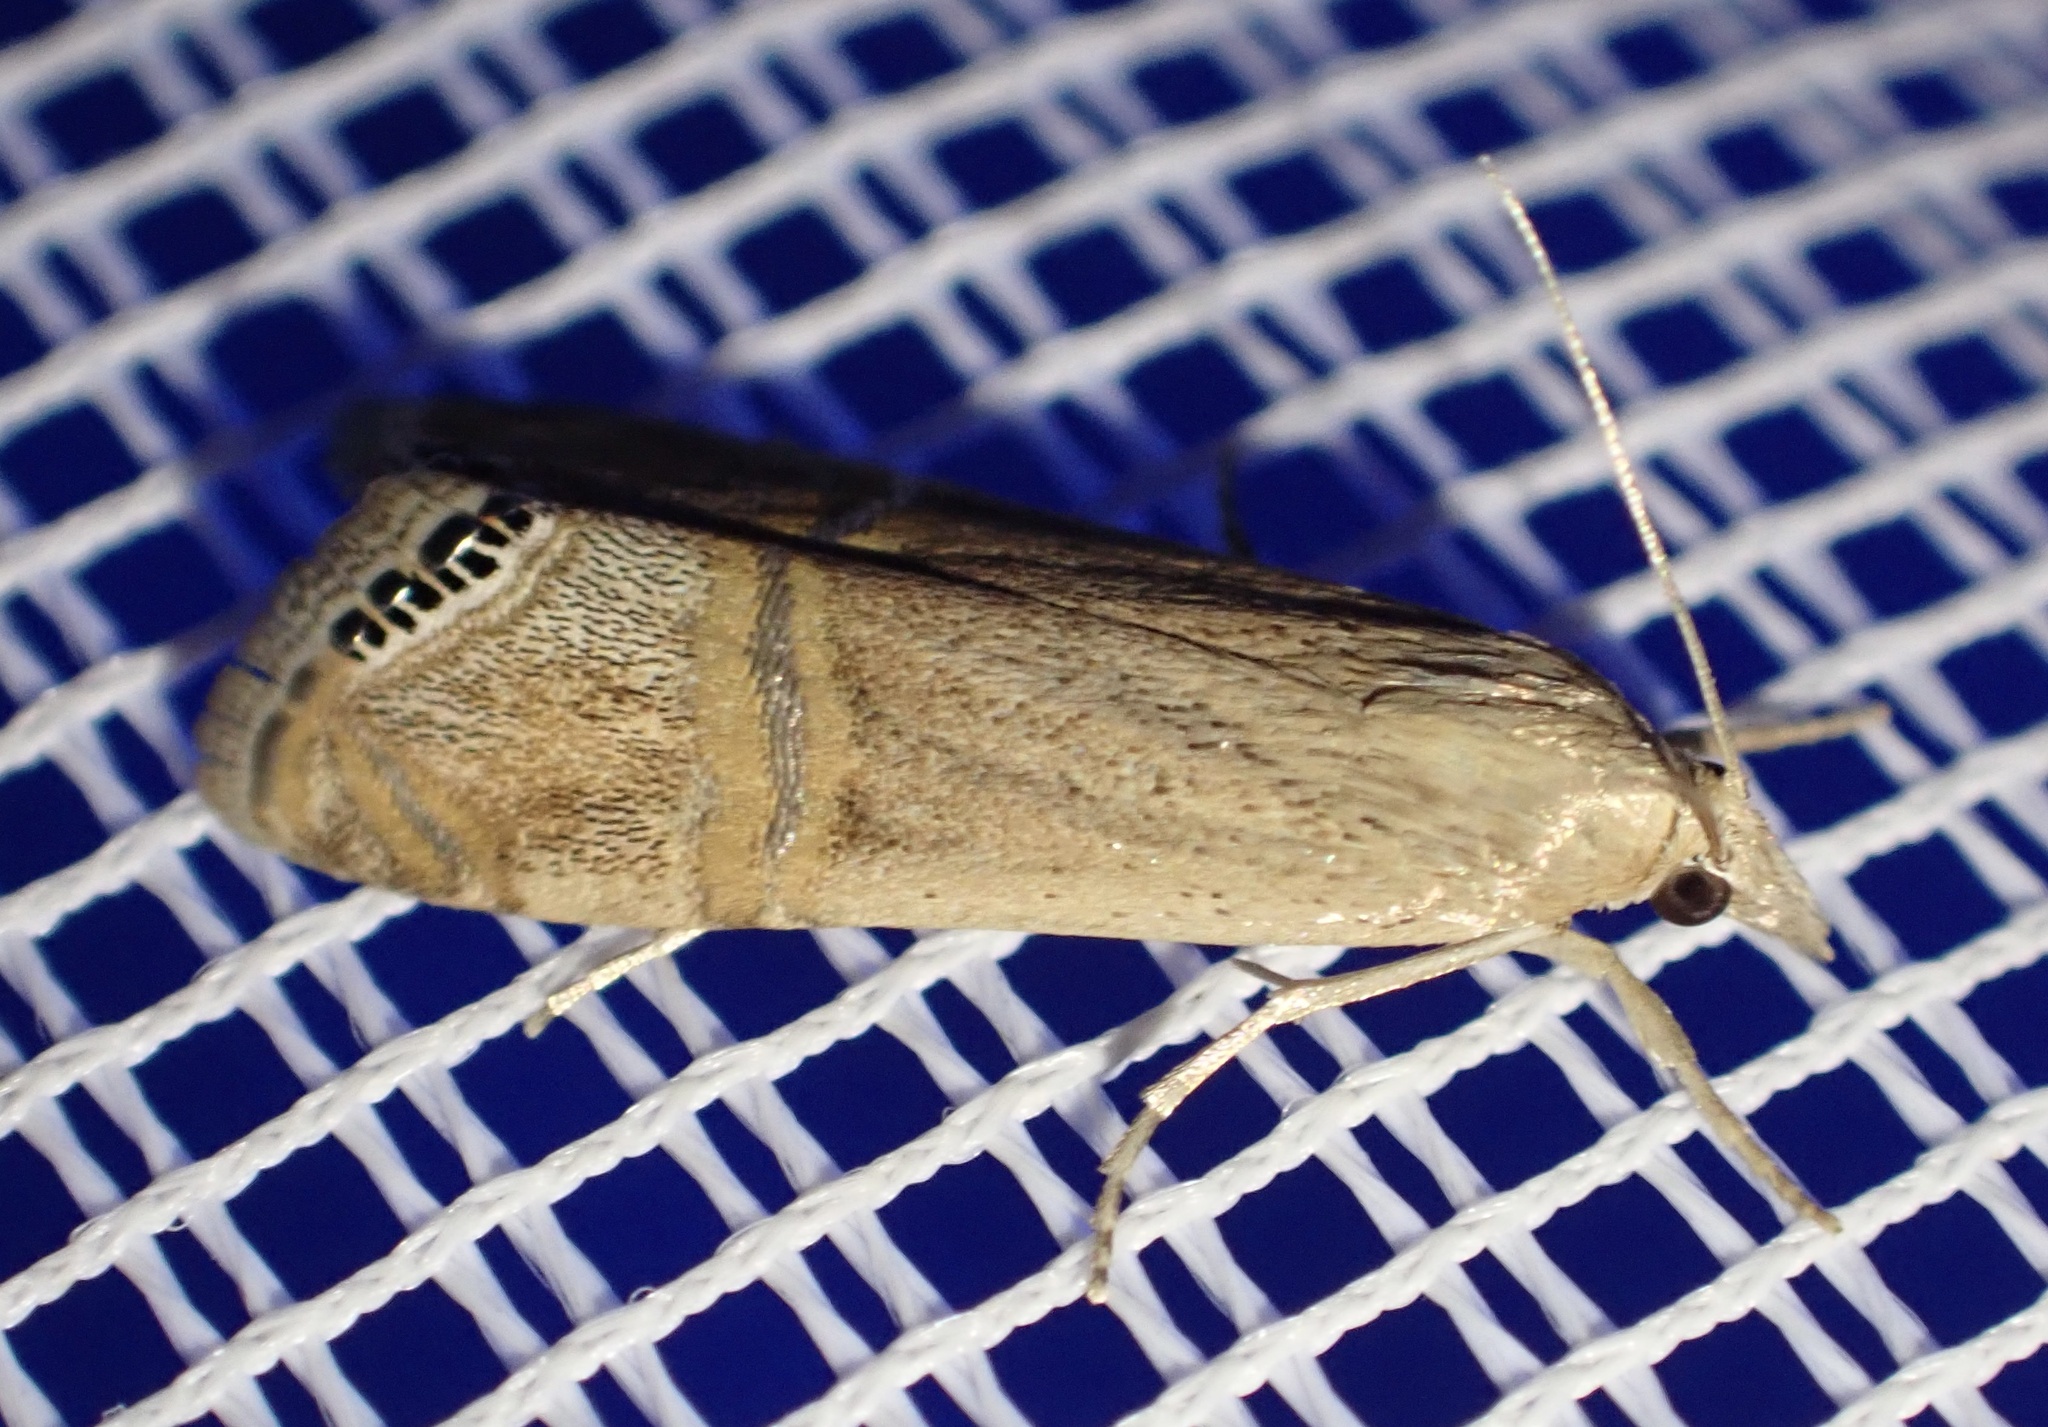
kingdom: Animalia
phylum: Arthropoda
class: Insecta
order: Lepidoptera
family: Crambidae
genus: Euchromius
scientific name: Euchromius ocellea
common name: Necklace veneer moth
